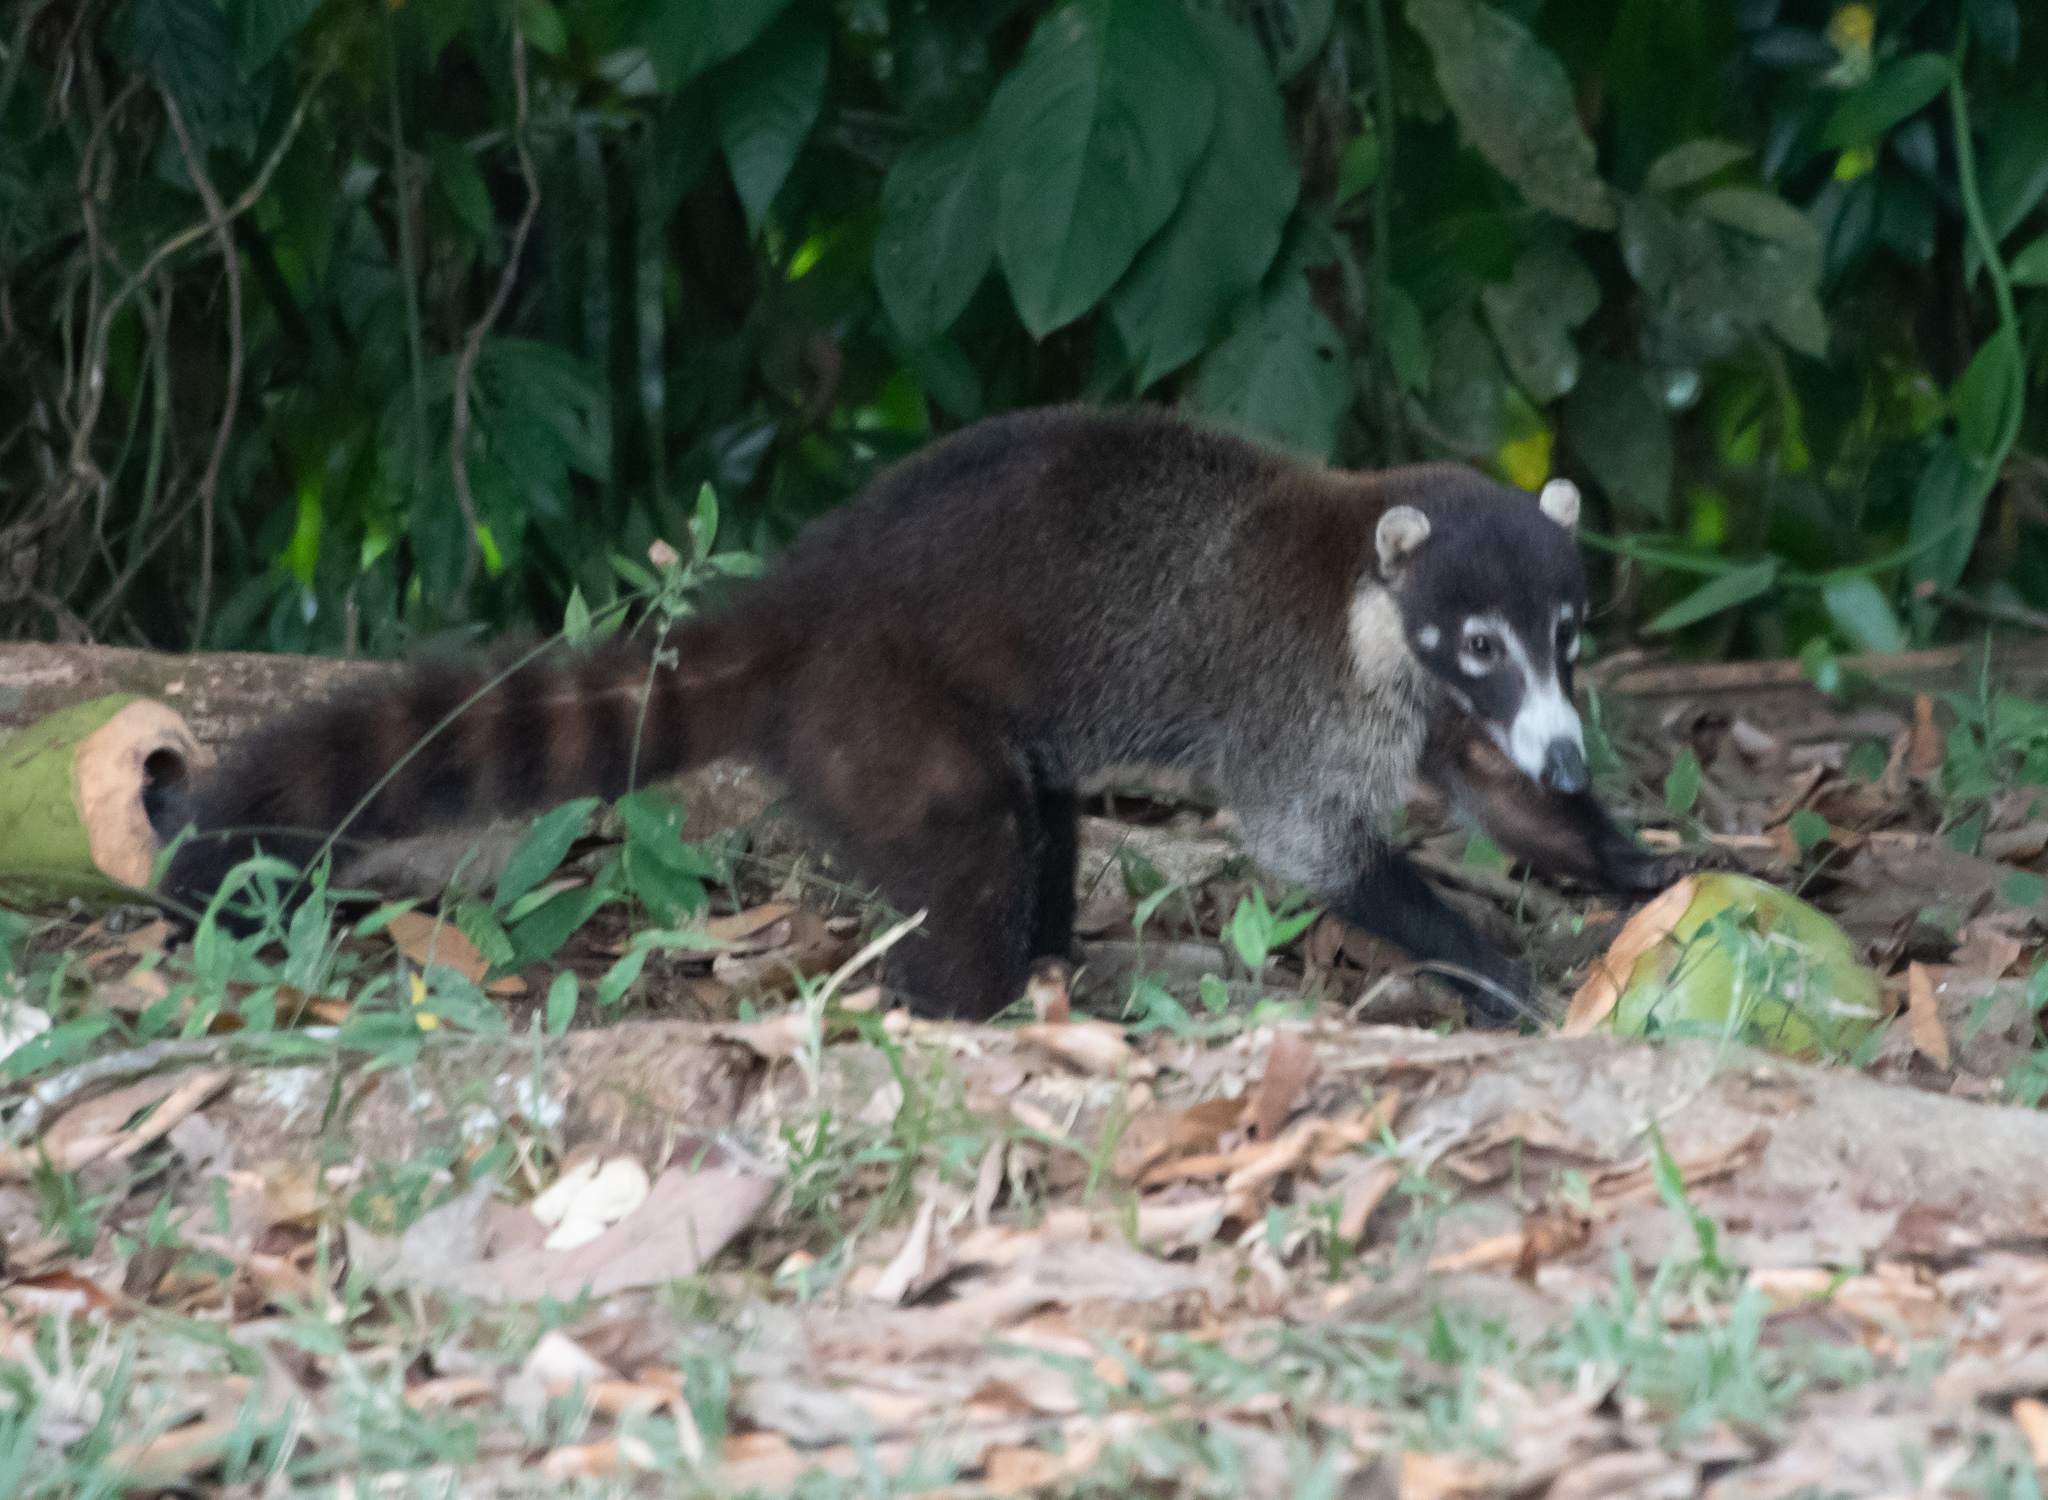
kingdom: Animalia
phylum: Chordata
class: Mammalia
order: Carnivora
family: Procyonidae
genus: Nasua
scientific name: Nasua narica
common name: White-nosed coati
